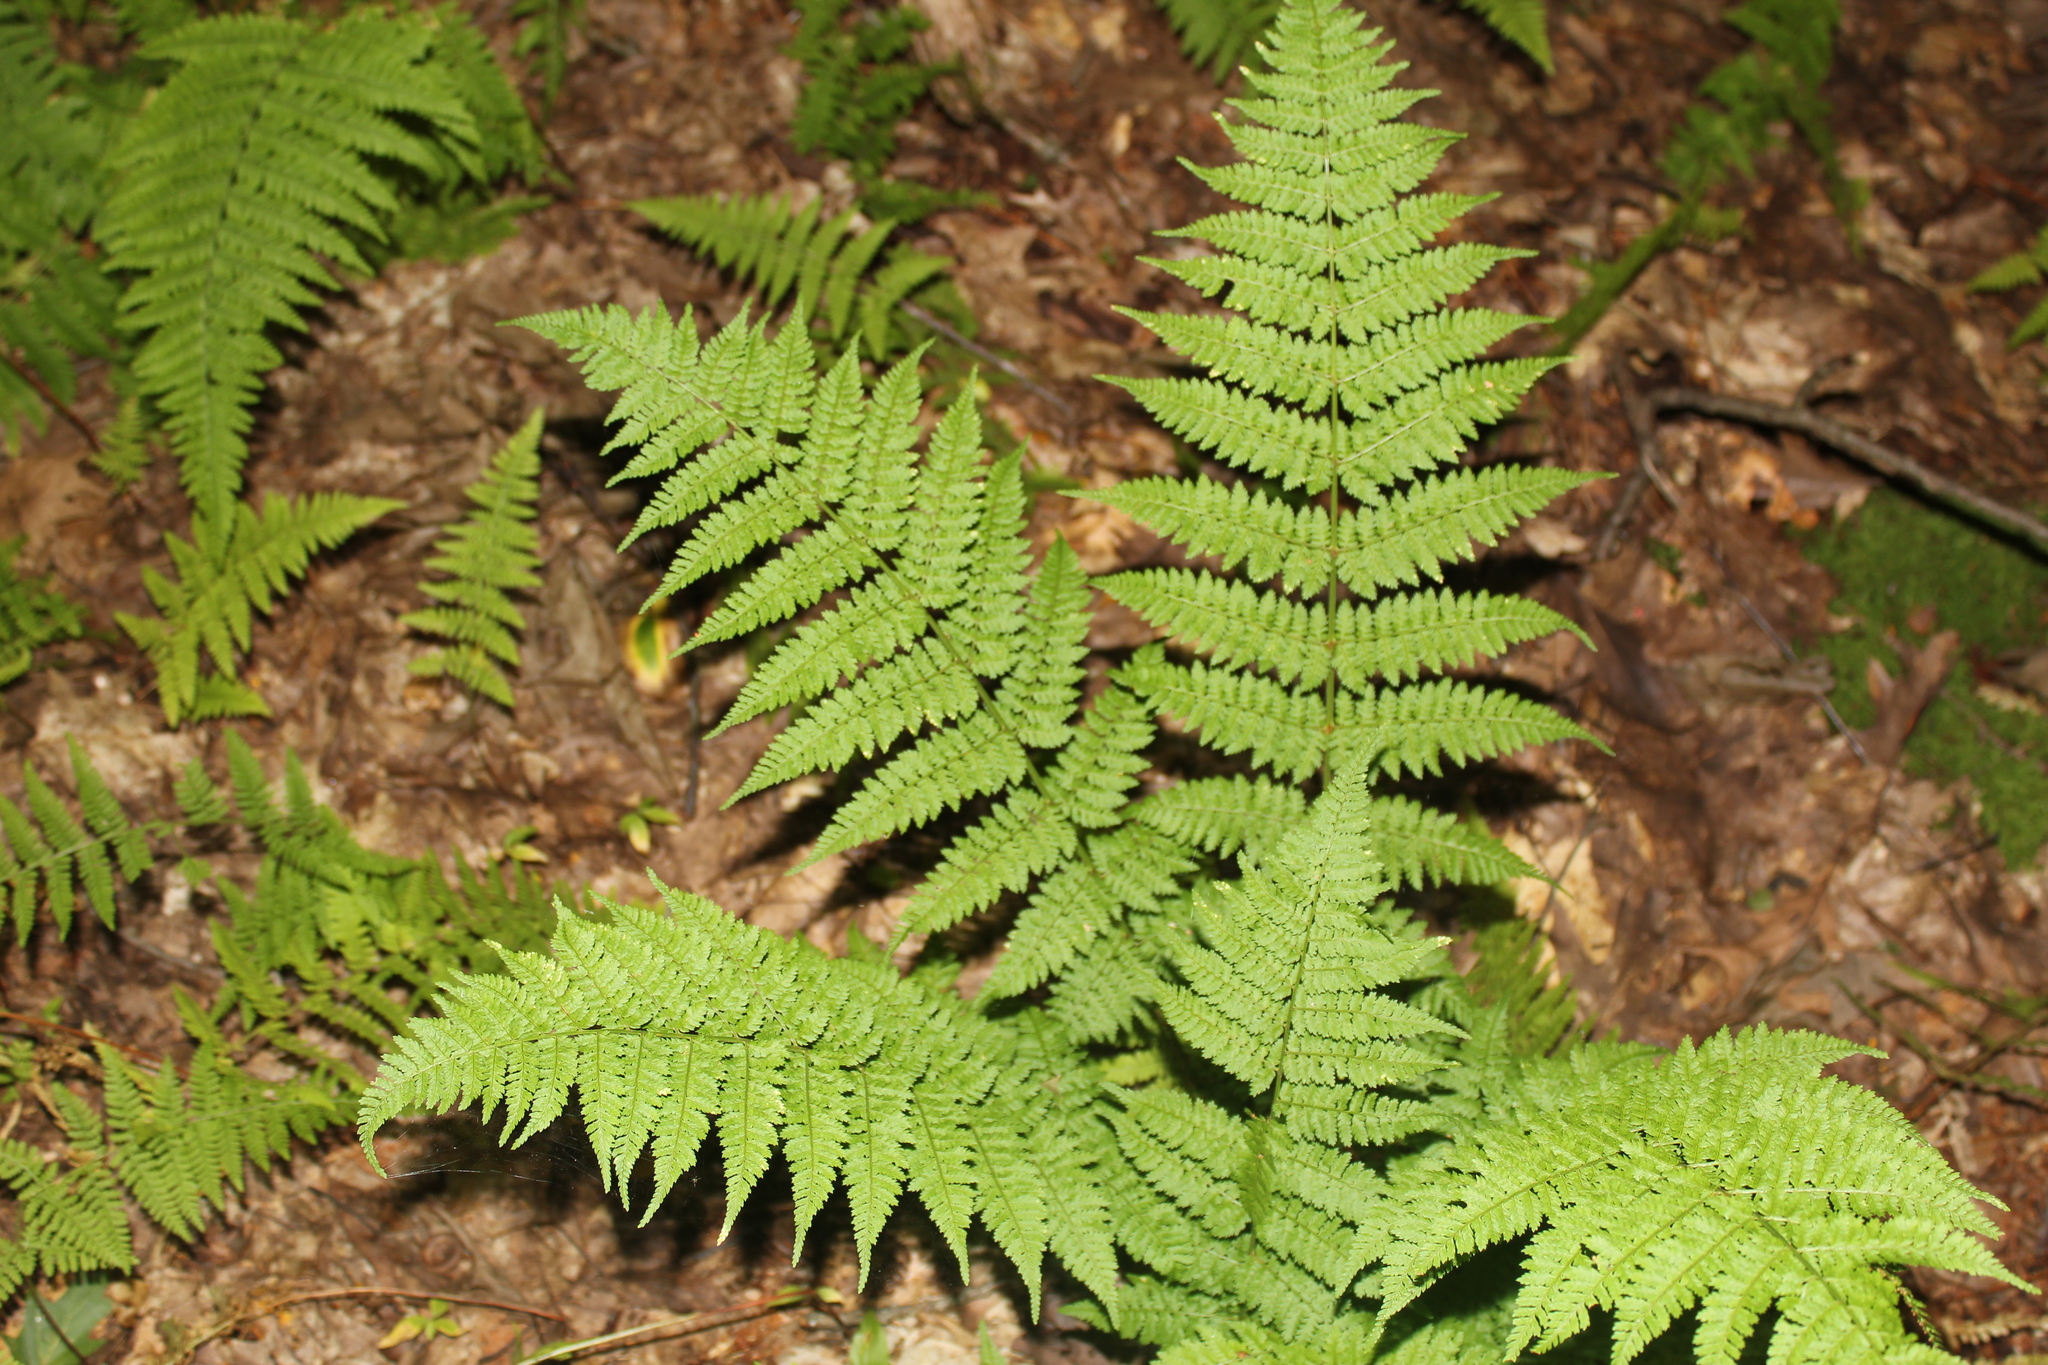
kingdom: Plantae
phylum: Tracheophyta
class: Polypodiopsida
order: Polypodiales
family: Dryopteridaceae
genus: Dryopteris
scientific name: Dryopteris intermedia
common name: Evergreen wood fern
